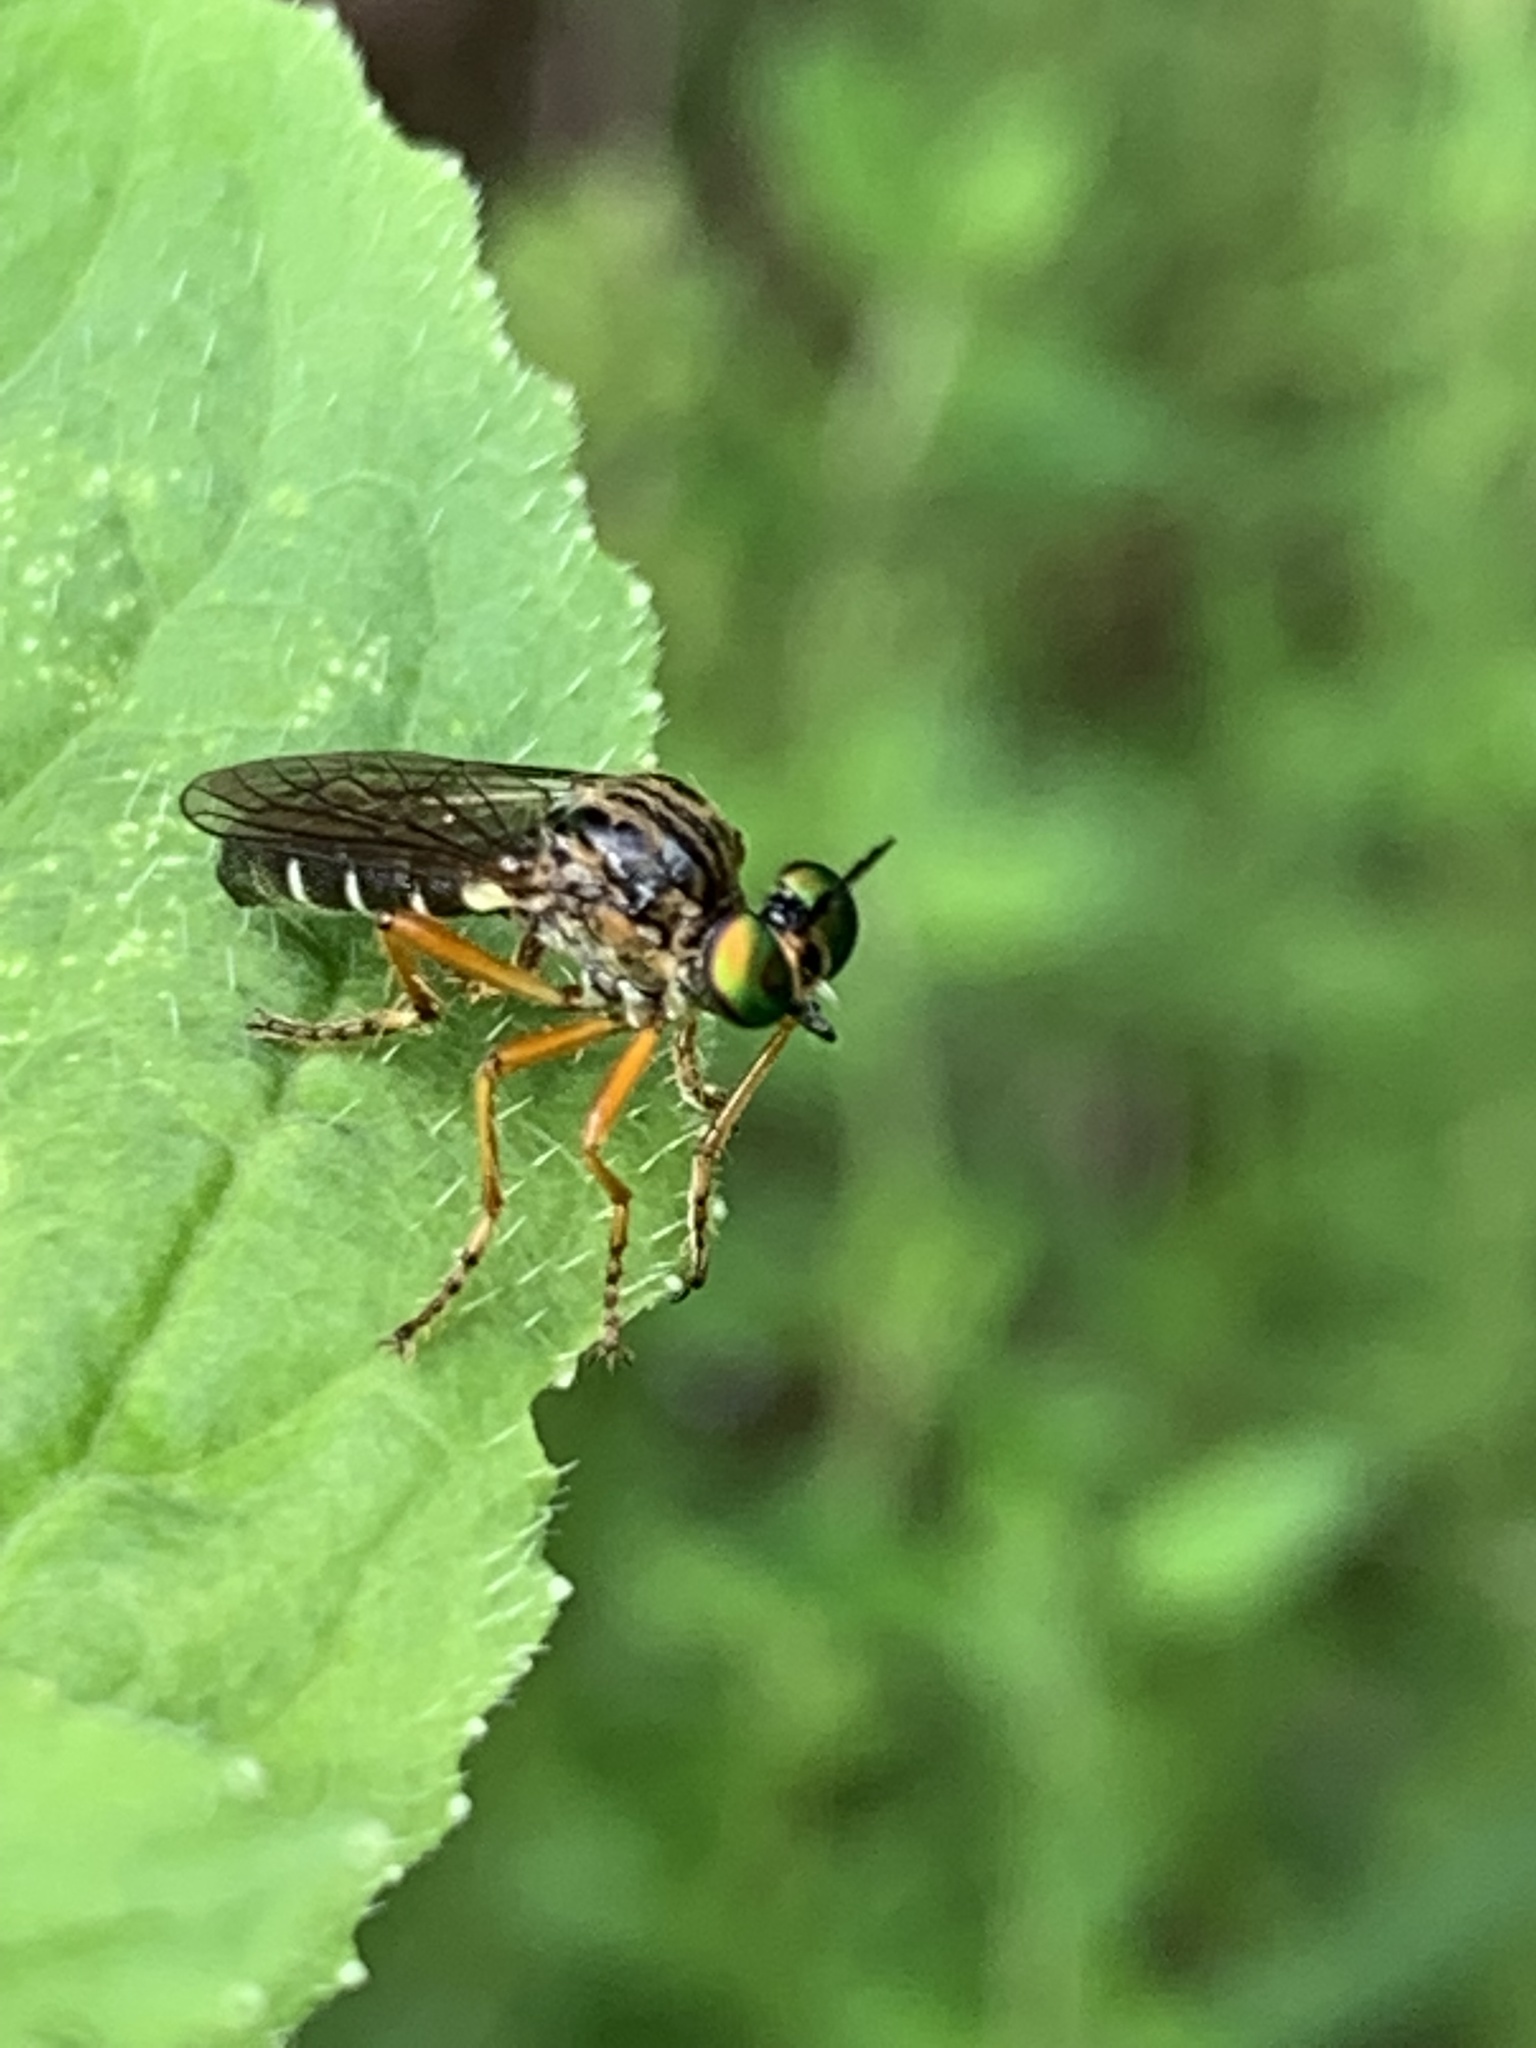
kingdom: Animalia
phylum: Arthropoda
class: Insecta
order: Diptera
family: Asilidae
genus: Taracticus
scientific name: Taracticus octopunctatus
